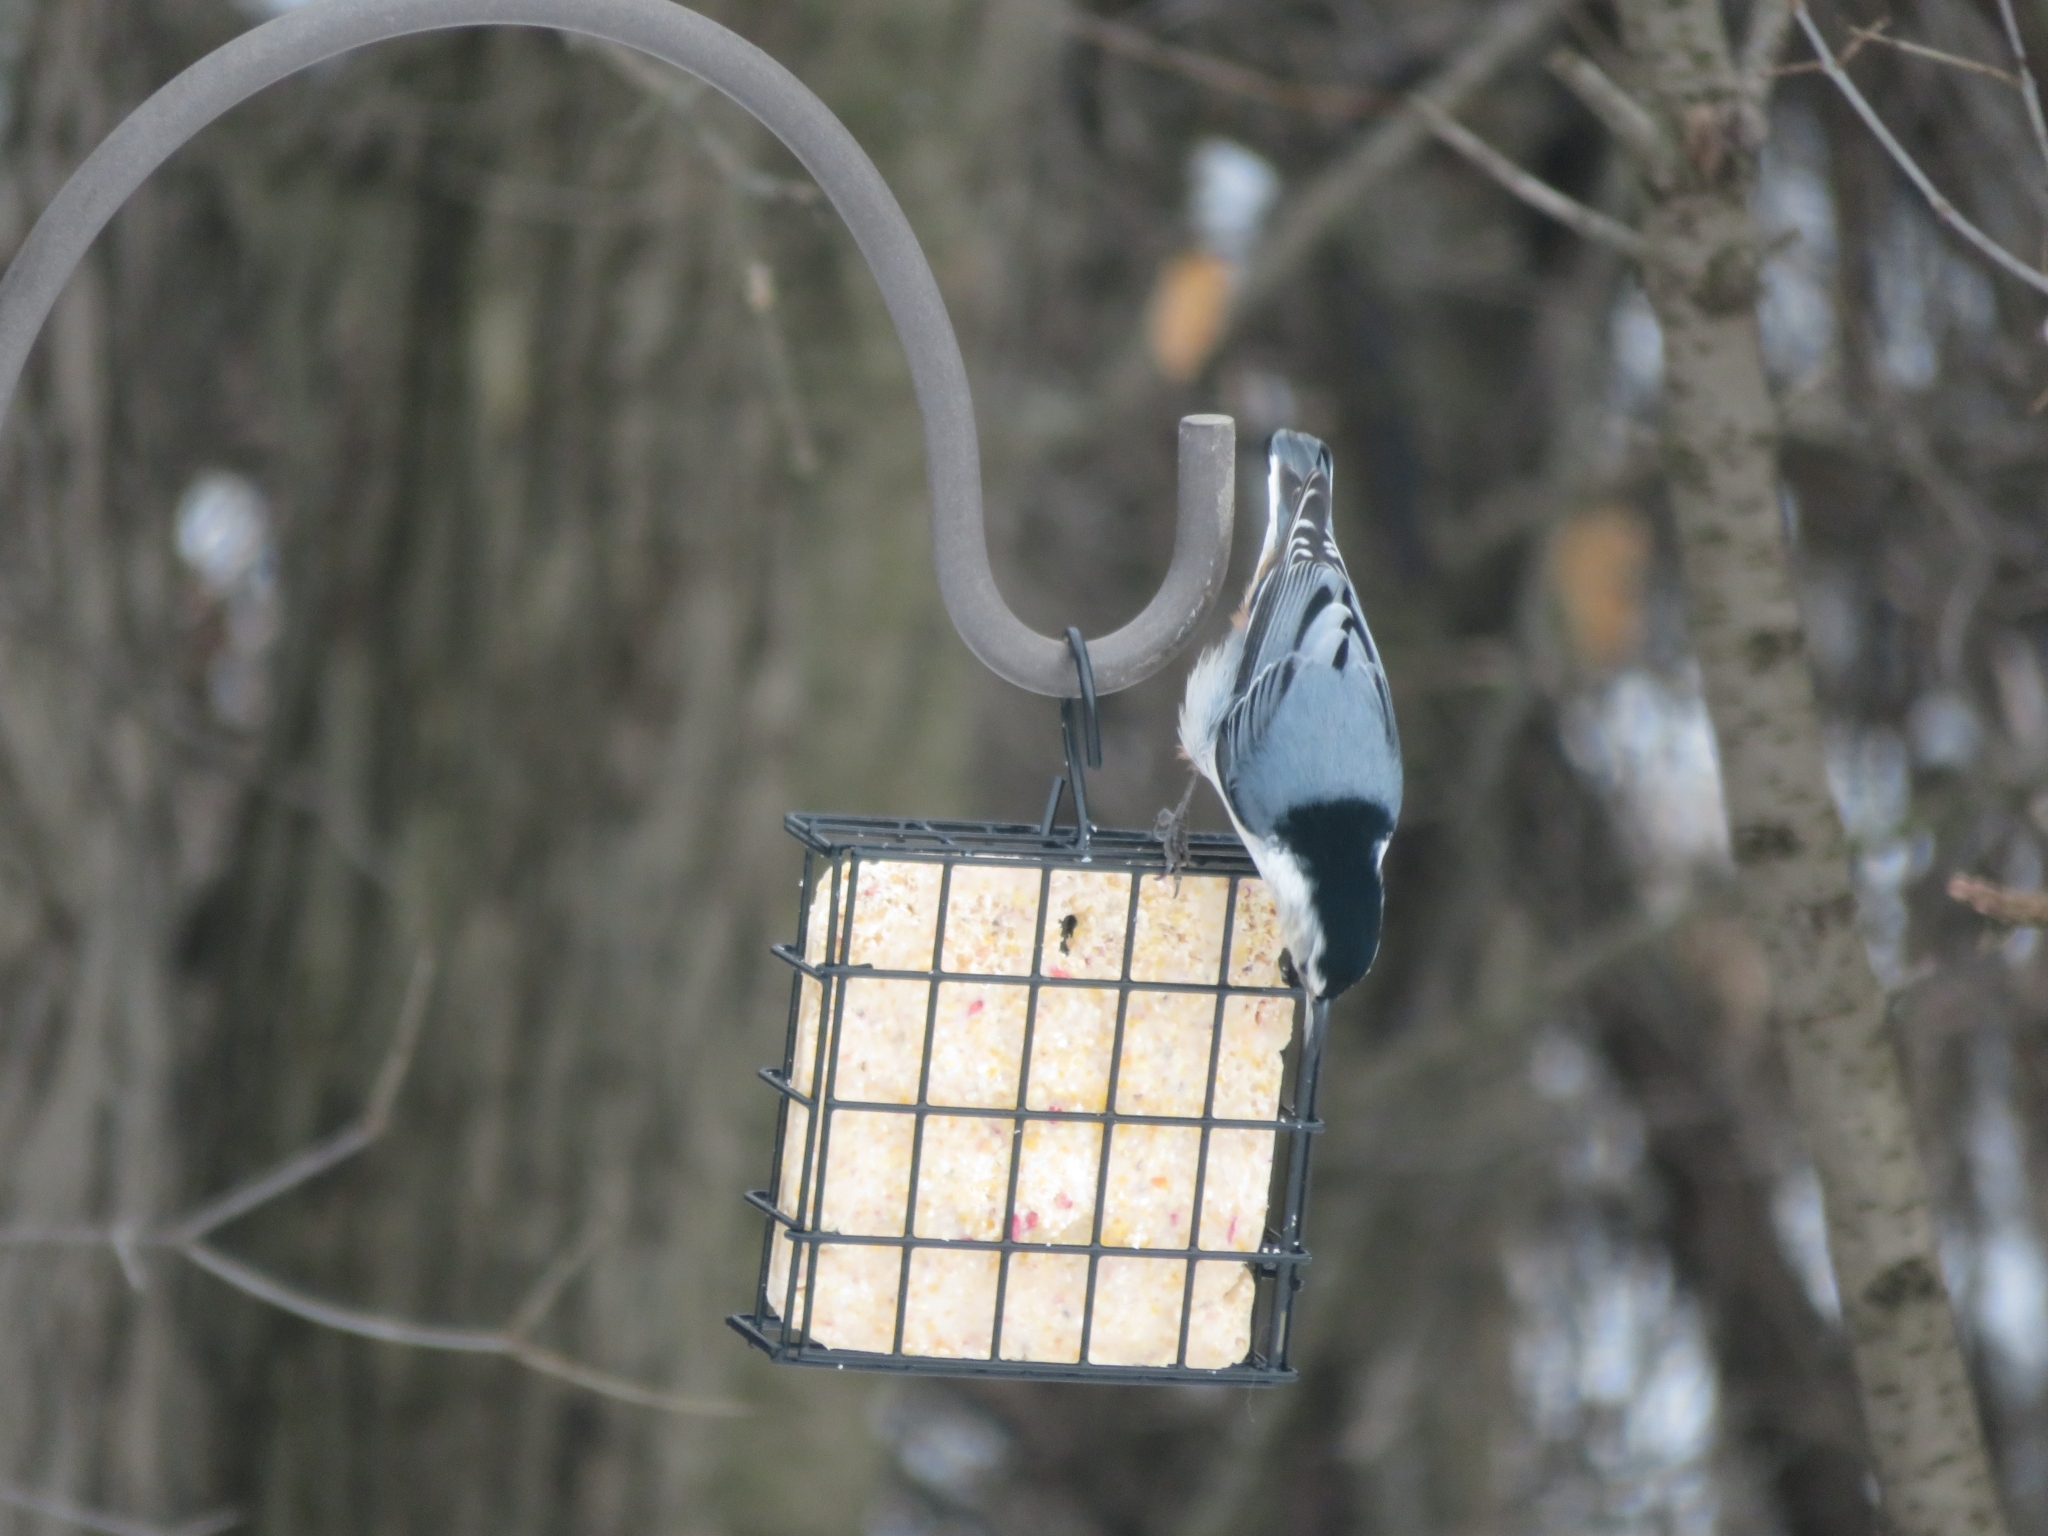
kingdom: Animalia
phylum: Chordata
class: Aves
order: Passeriformes
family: Sittidae
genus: Sitta
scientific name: Sitta carolinensis
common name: White-breasted nuthatch
